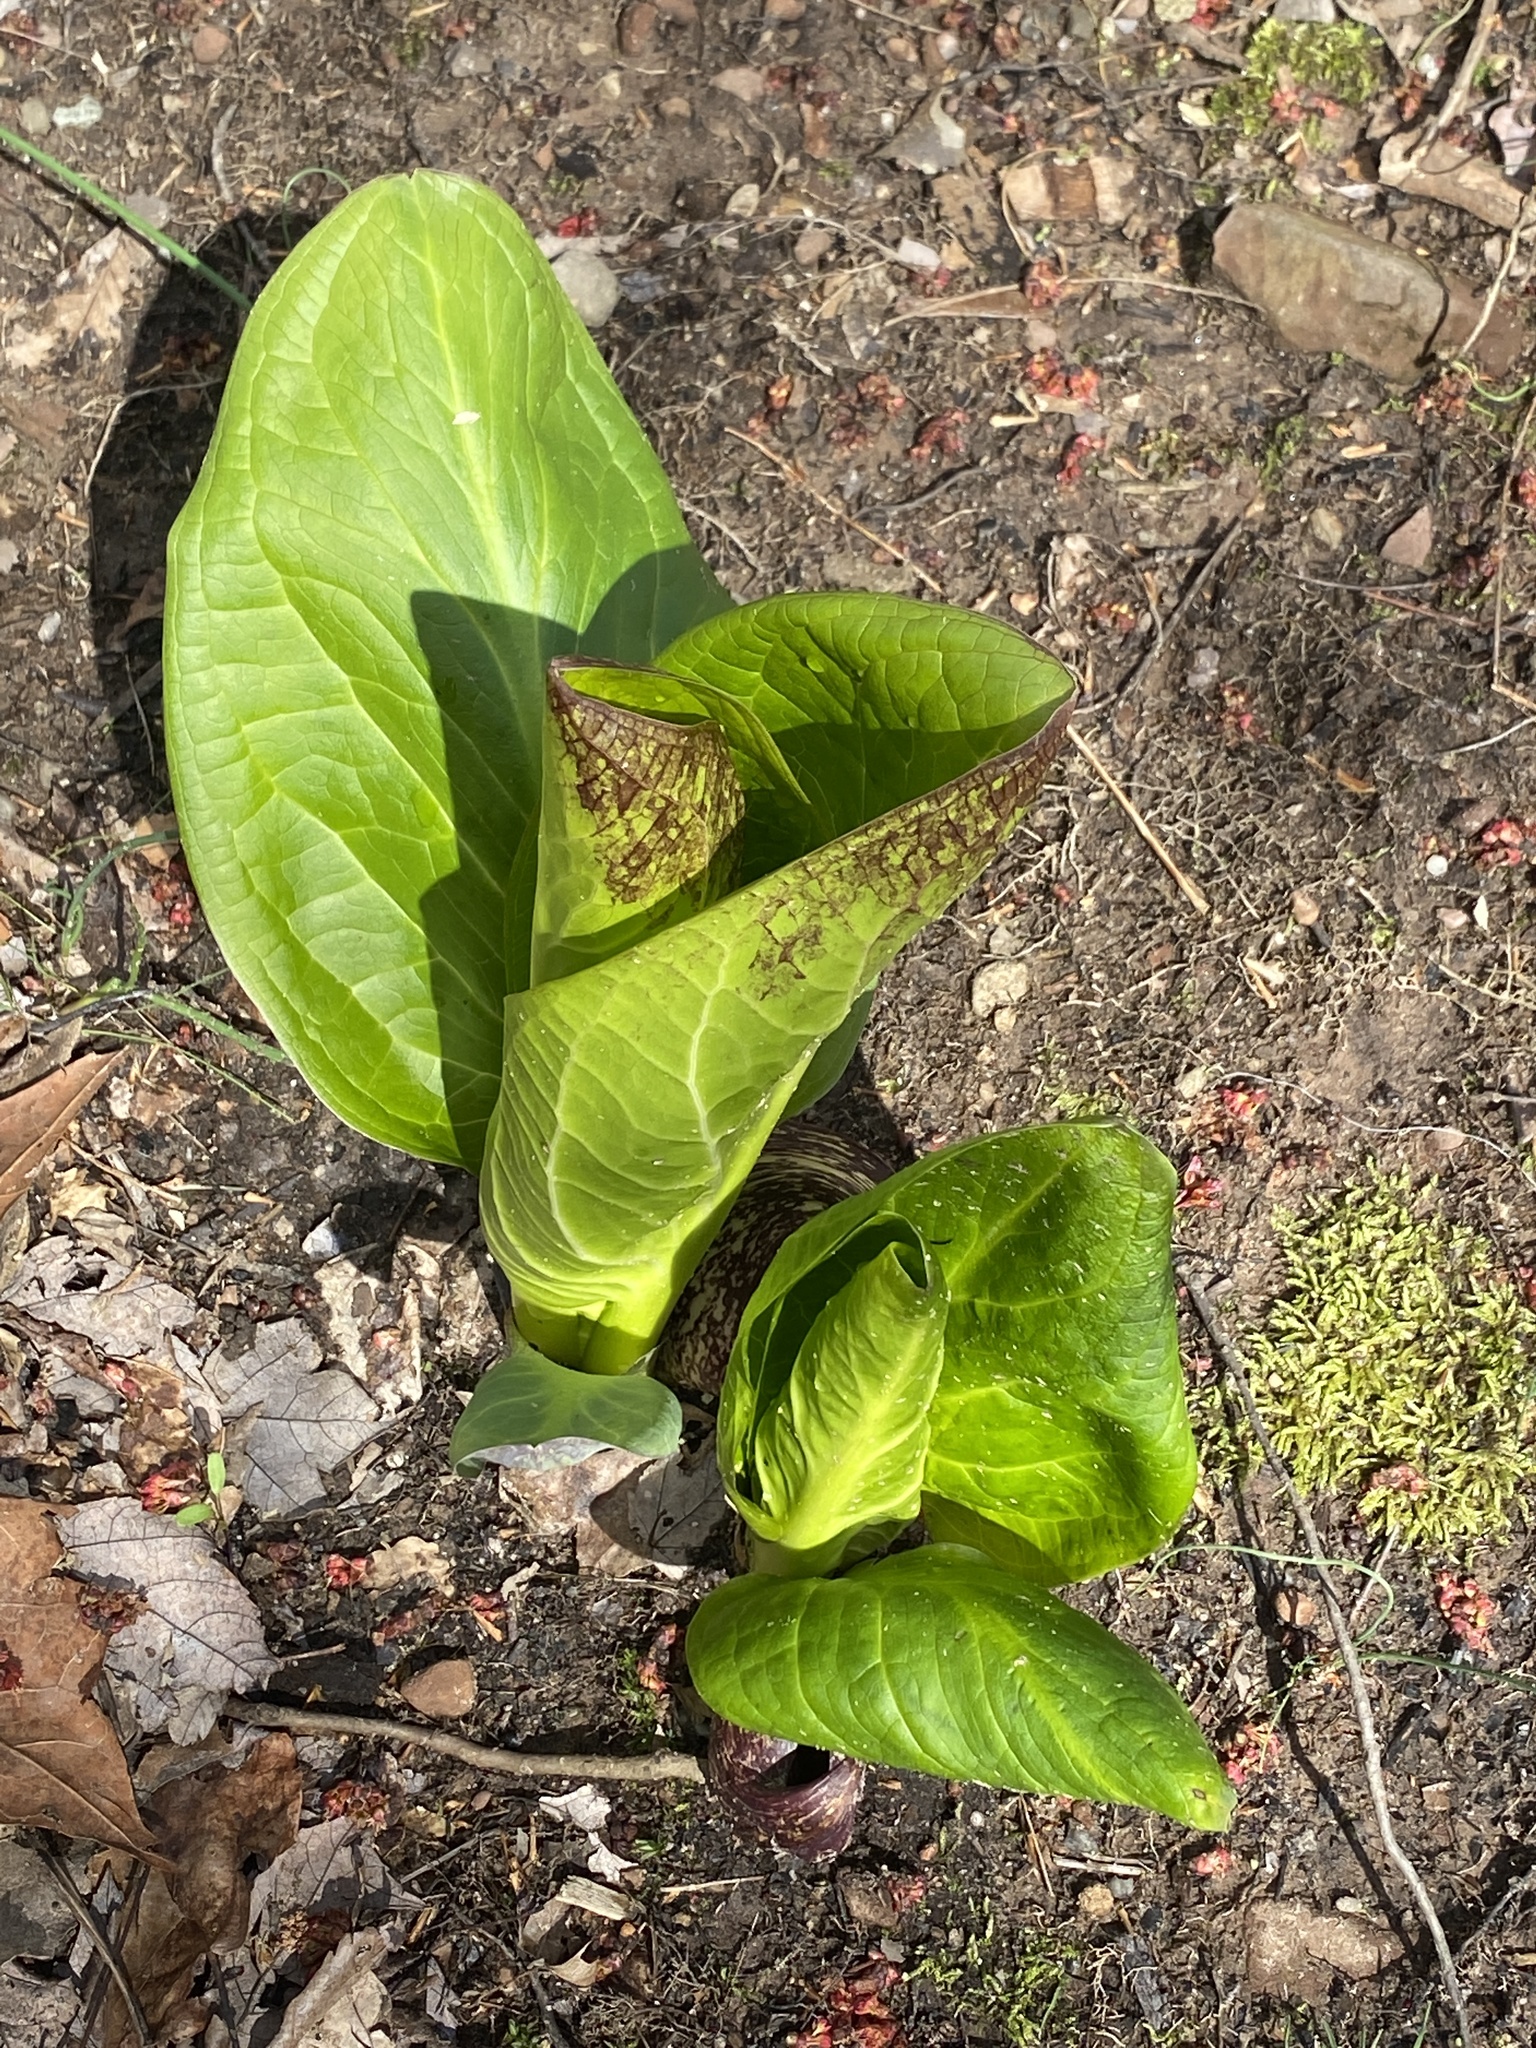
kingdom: Plantae
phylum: Tracheophyta
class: Liliopsida
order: Alismatales
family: Araceae
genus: Symplocarpus
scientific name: Symplocarpus foetidus
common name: Eastern skunk cabbage
